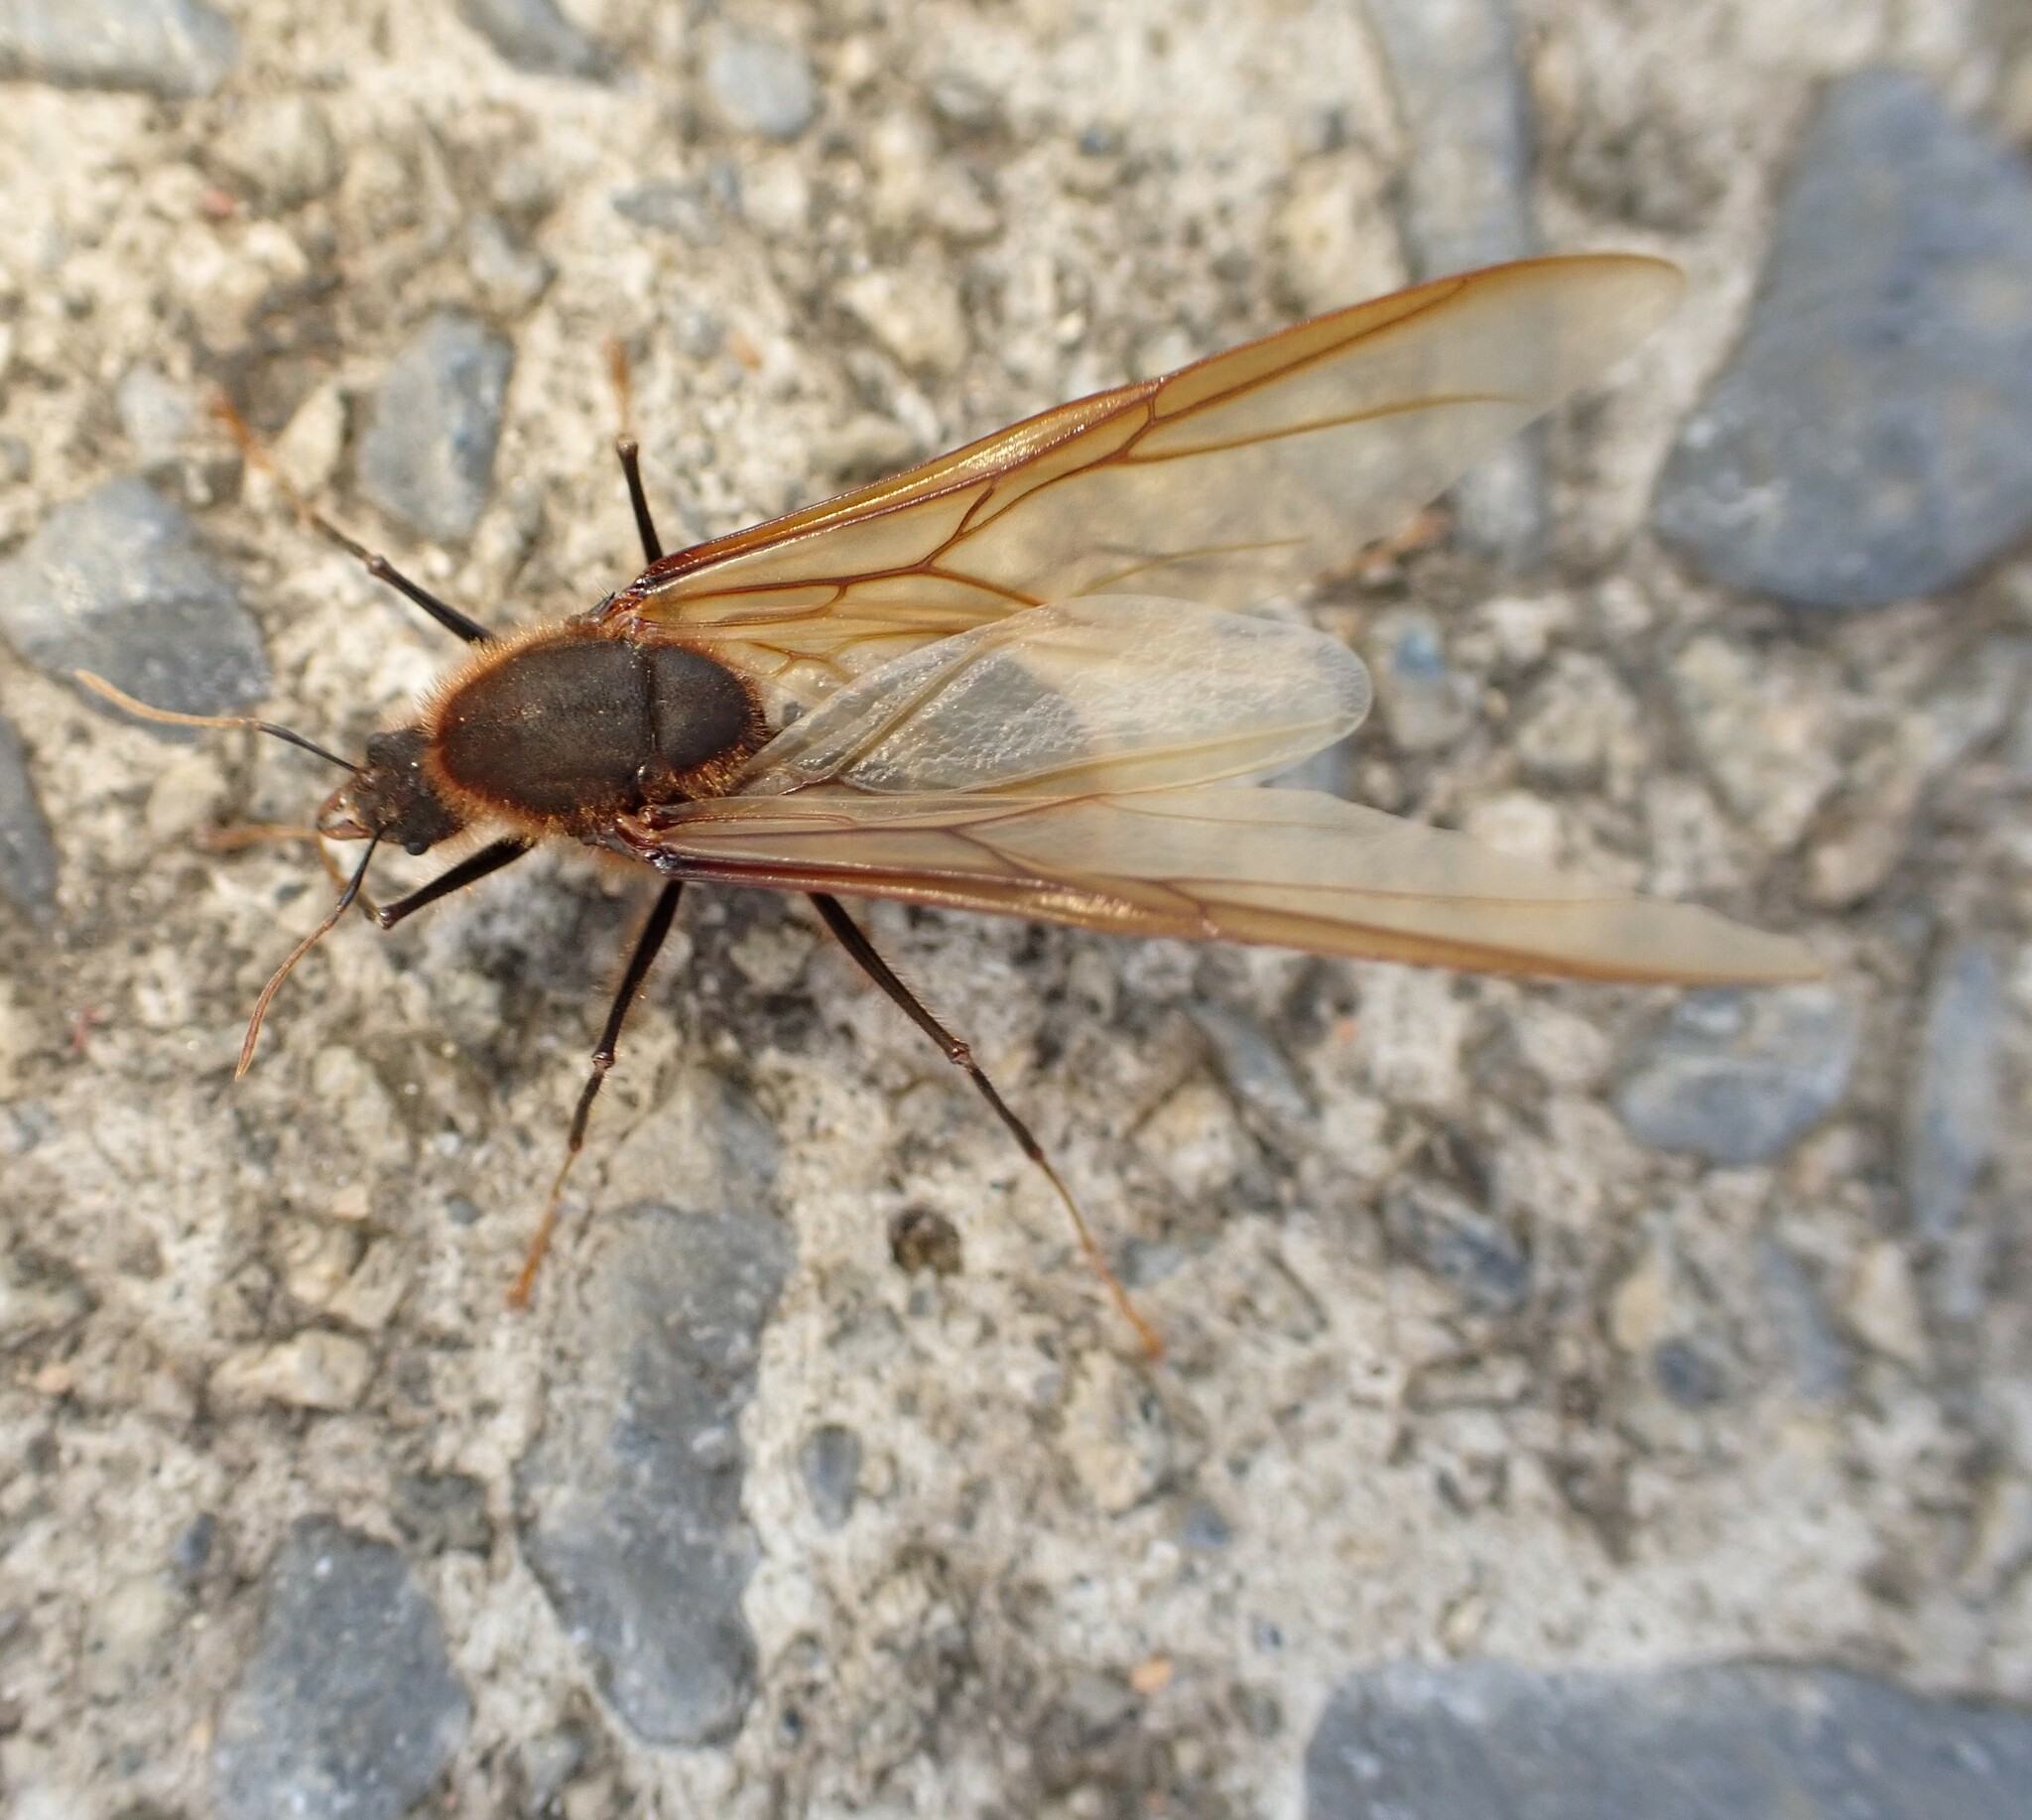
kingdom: Animalia
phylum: Arthropoda
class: Insecta
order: Hymenoptera
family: Formicidae
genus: Atta
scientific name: Atta
